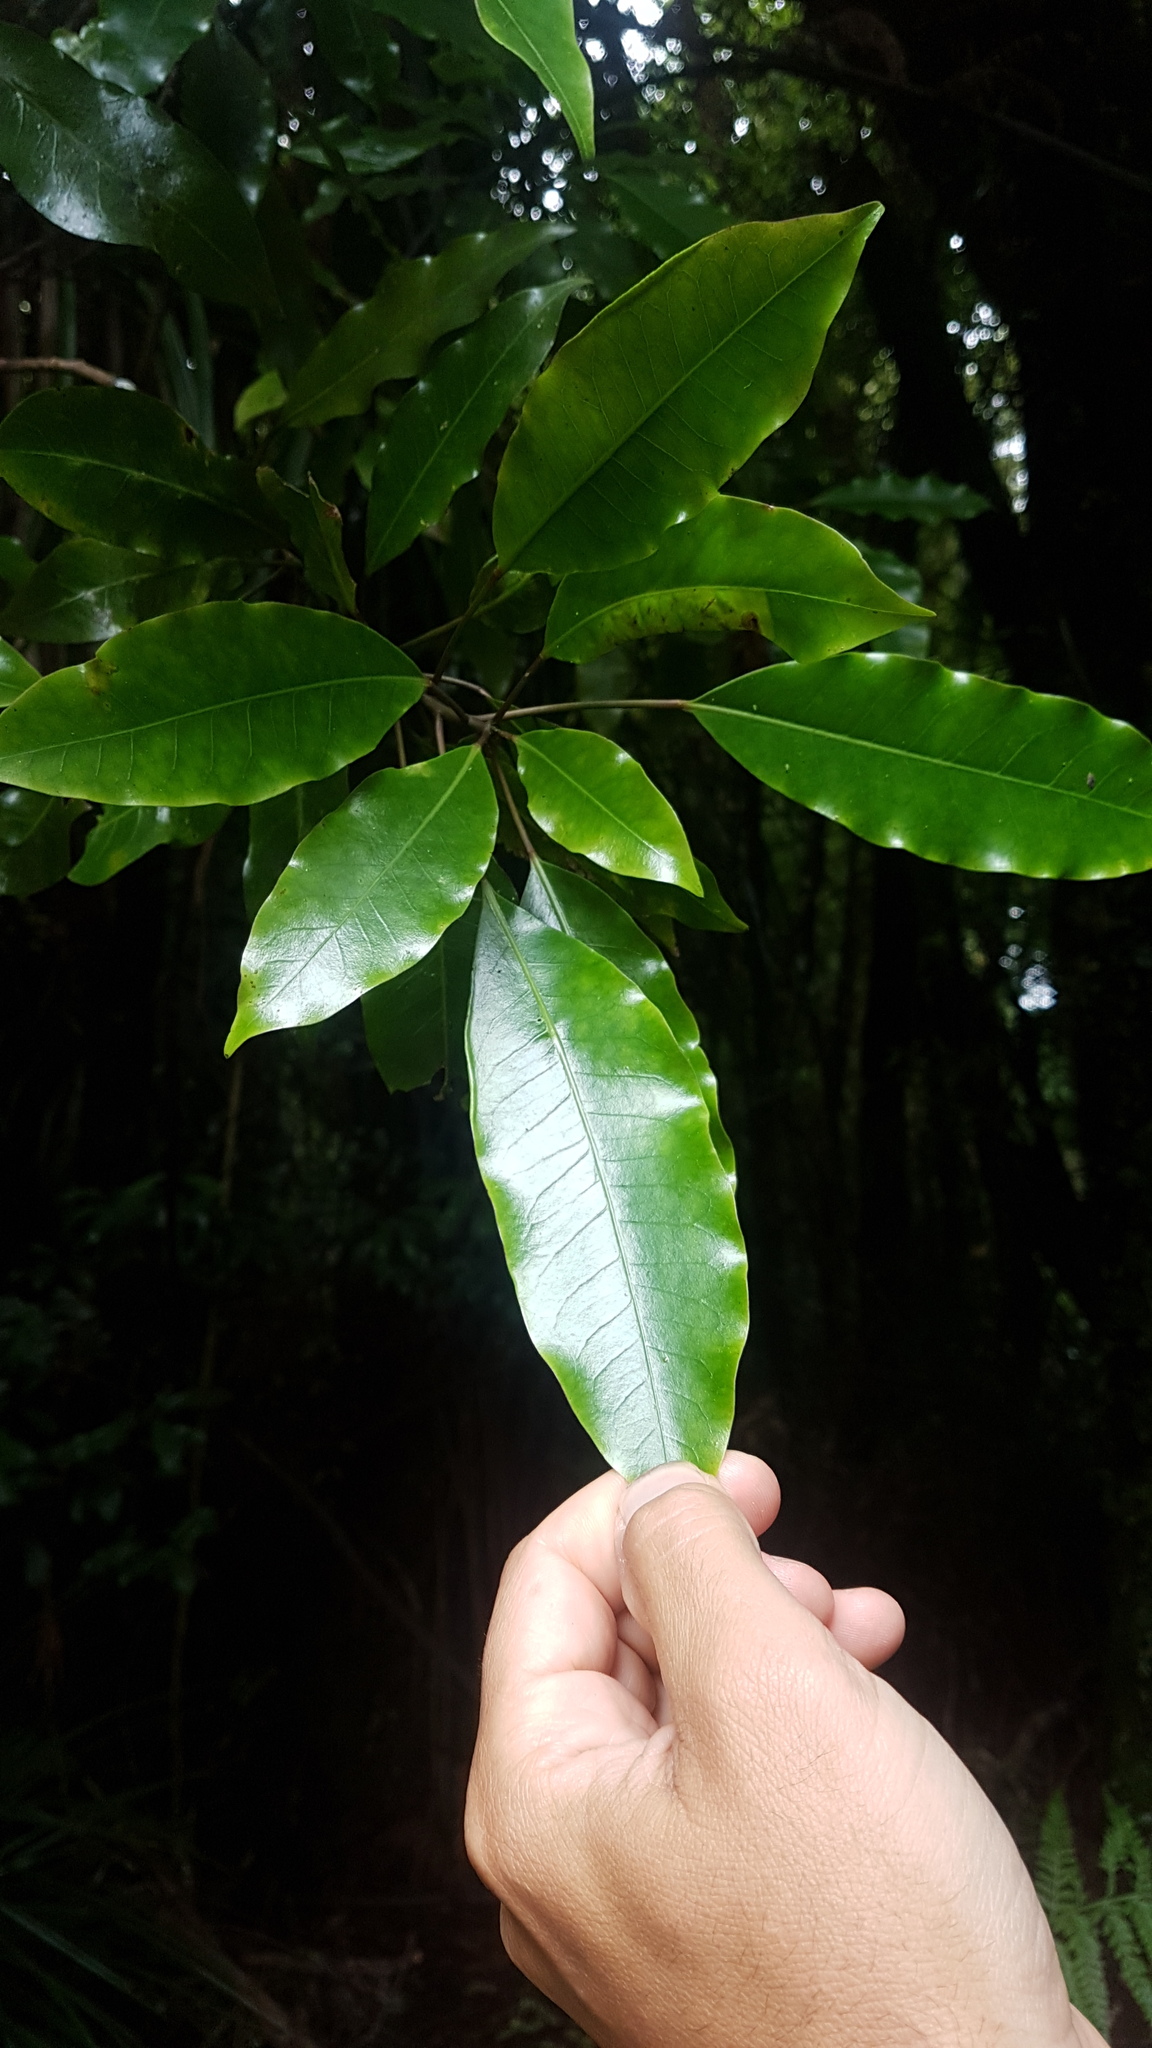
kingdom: Plantae
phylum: Tracheophyta
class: Magnoliopsida
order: Apiales
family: Araliaceae
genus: Raukaua
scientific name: Raukaua edgerleyi
